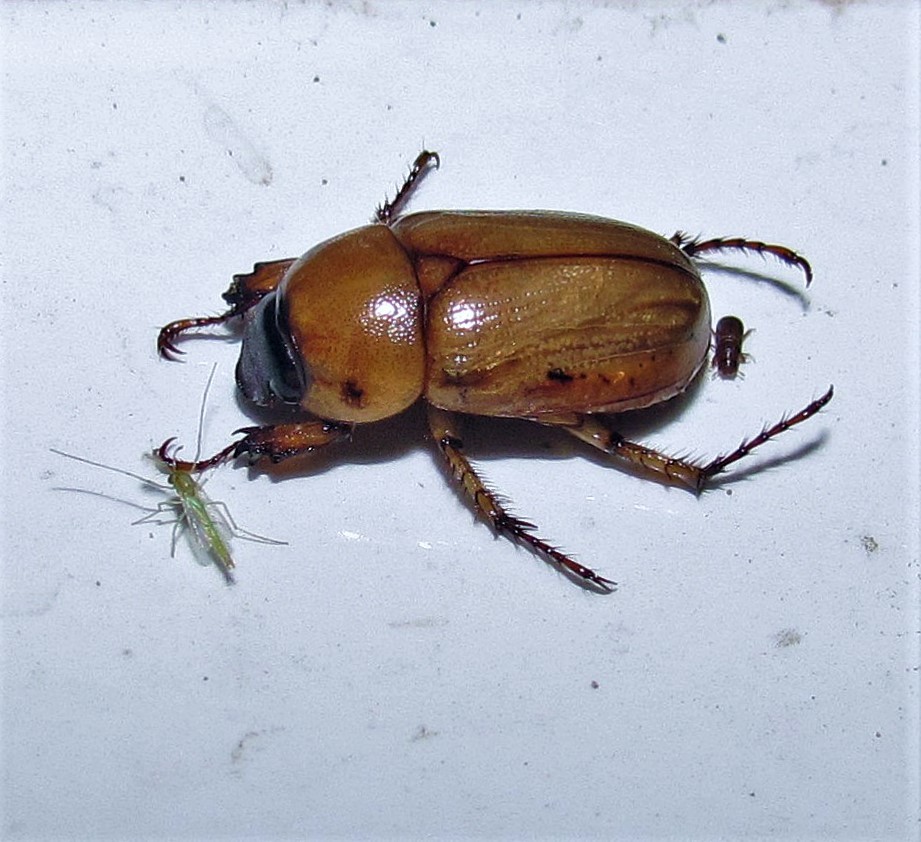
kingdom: Animalia
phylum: Arthropoda
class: Insecta
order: Coleoptera
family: Scarabaeidae
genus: Cyclocephala
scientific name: Cyclocephala putrida
